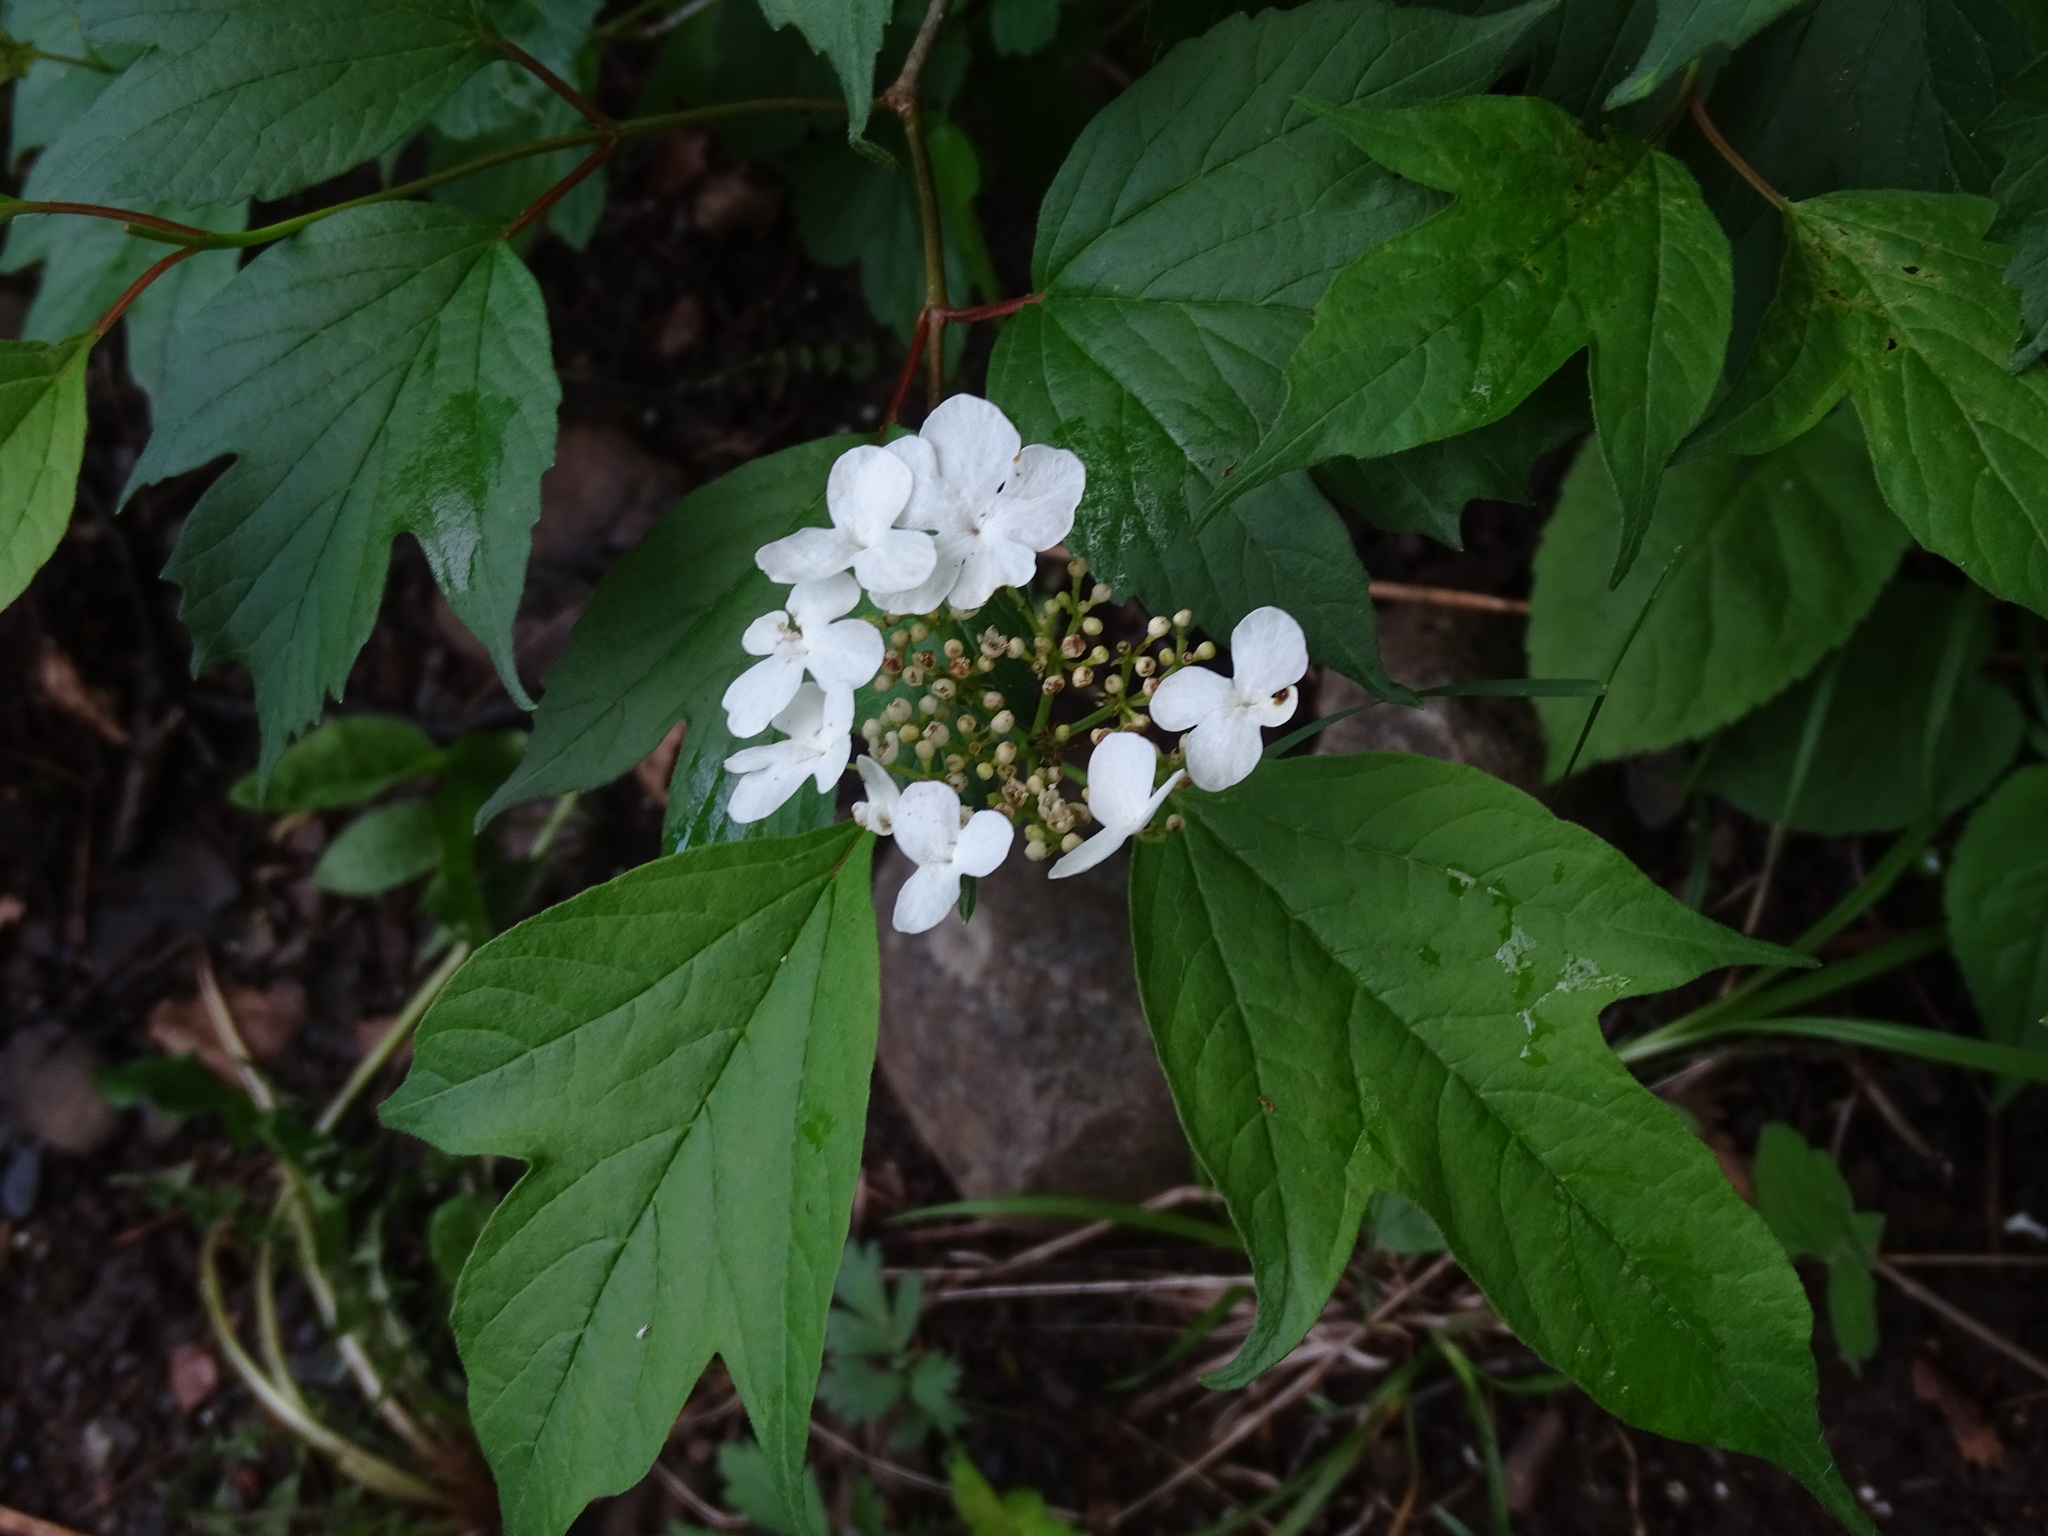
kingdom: Plantae
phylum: Tracheophyta
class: Magnoliopsida
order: Dipsacales
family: Viburnaceae
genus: Viburnum
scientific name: Viburnum trilobum
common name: American cranberrybush
